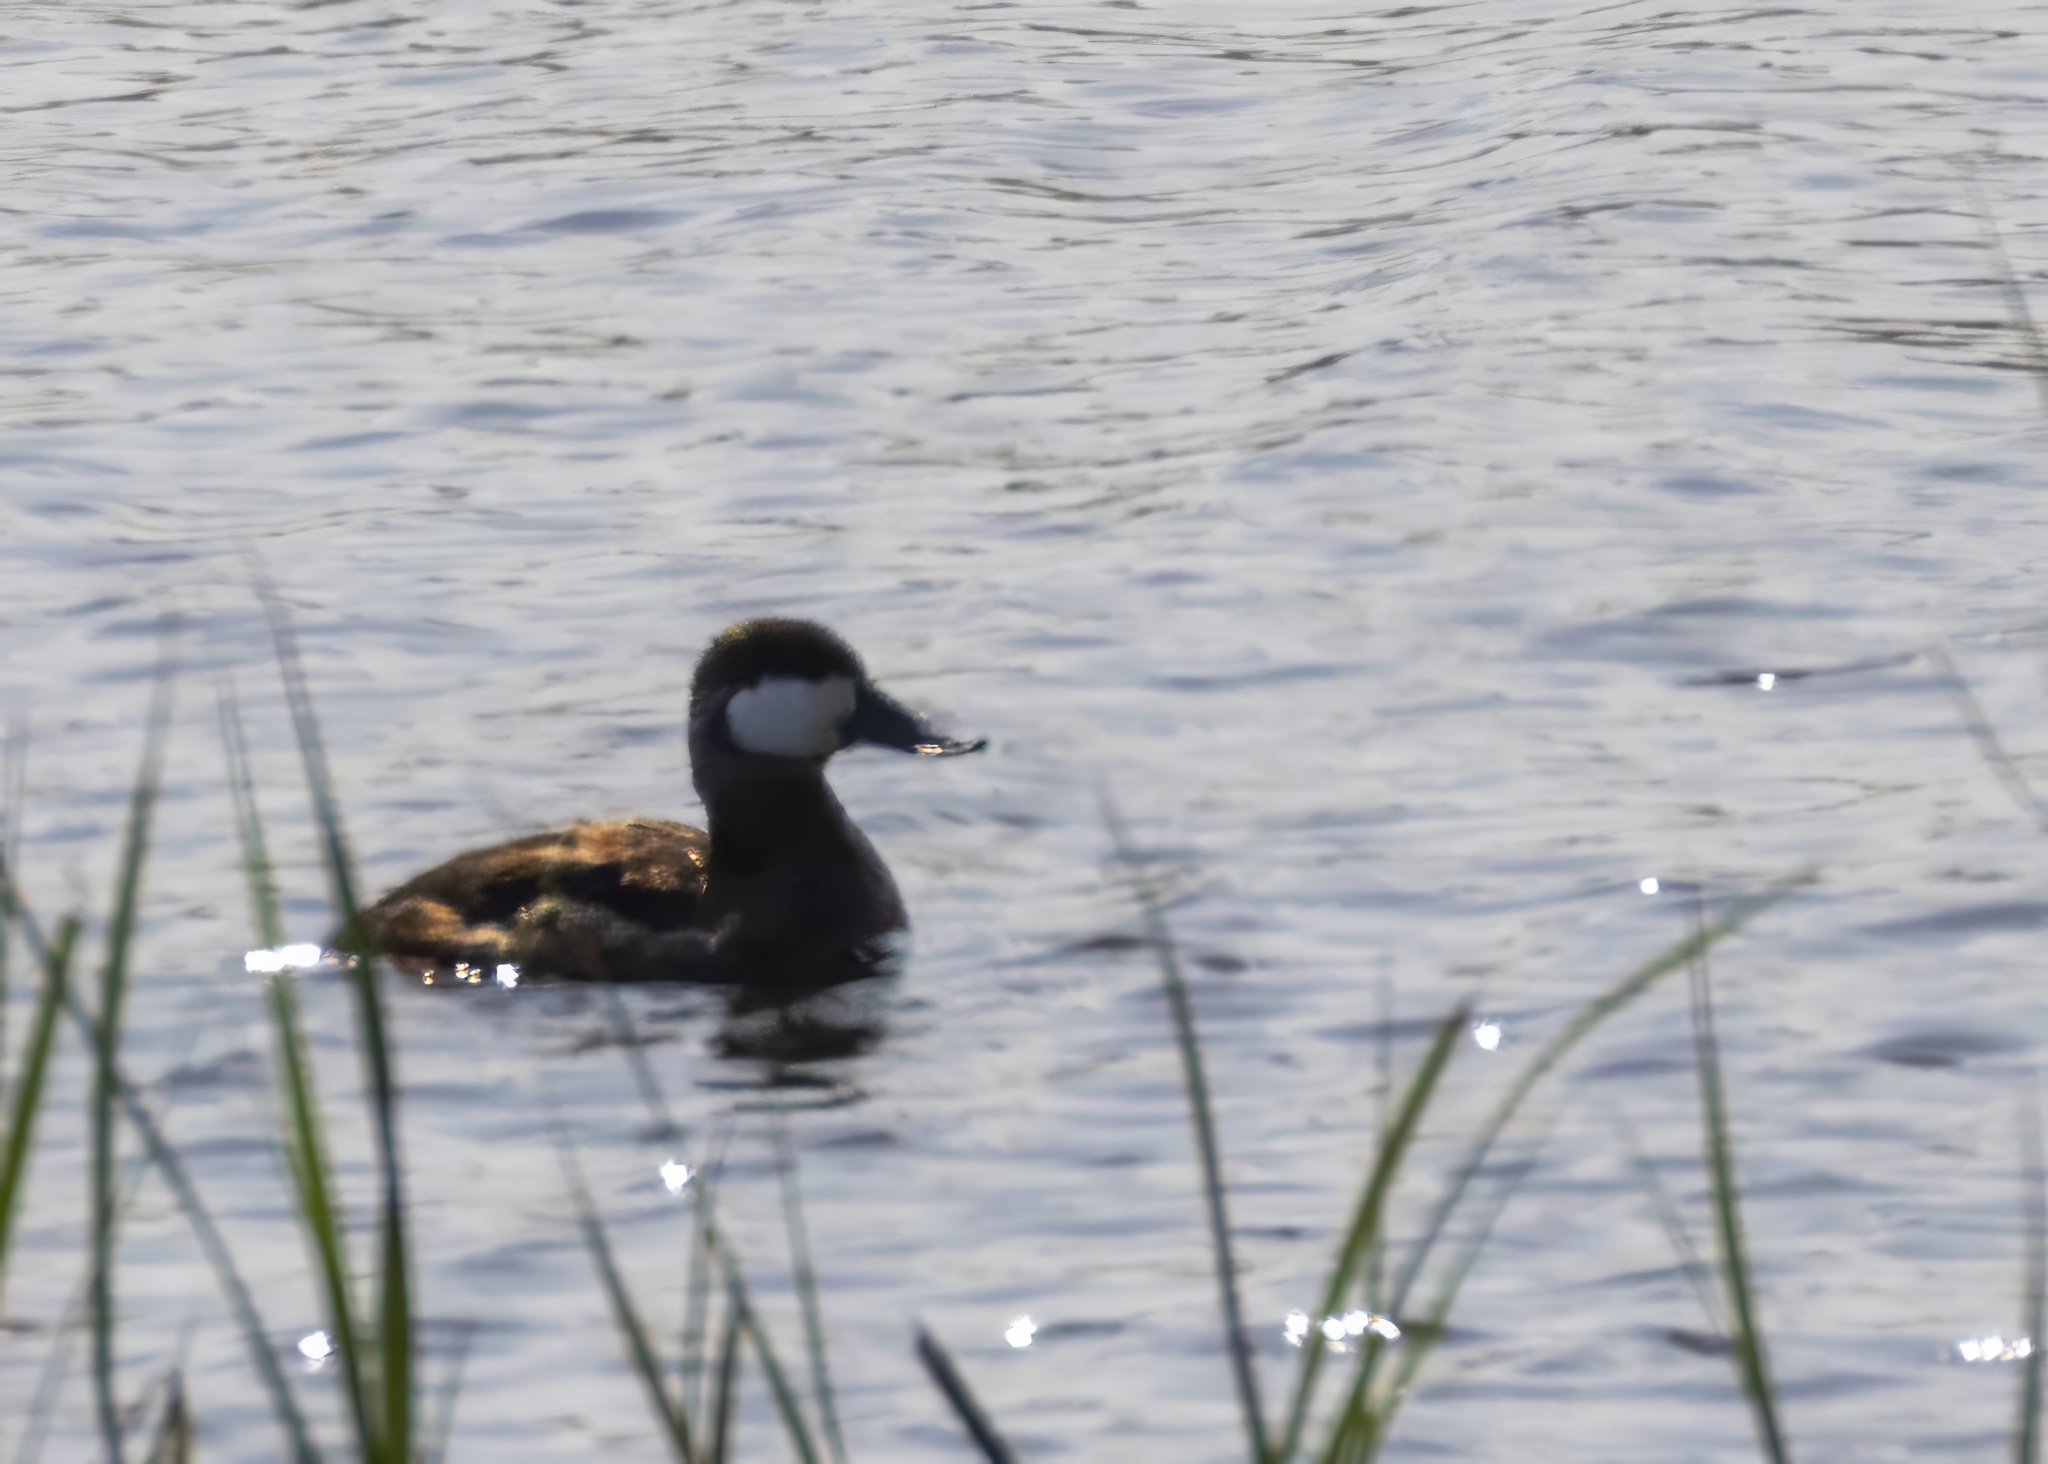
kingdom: Animalia
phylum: Chordata
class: Aves
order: Anseriformes
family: Anatidae
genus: Oxyura
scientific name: Oxyura jamaicensis
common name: Ruddy duck
